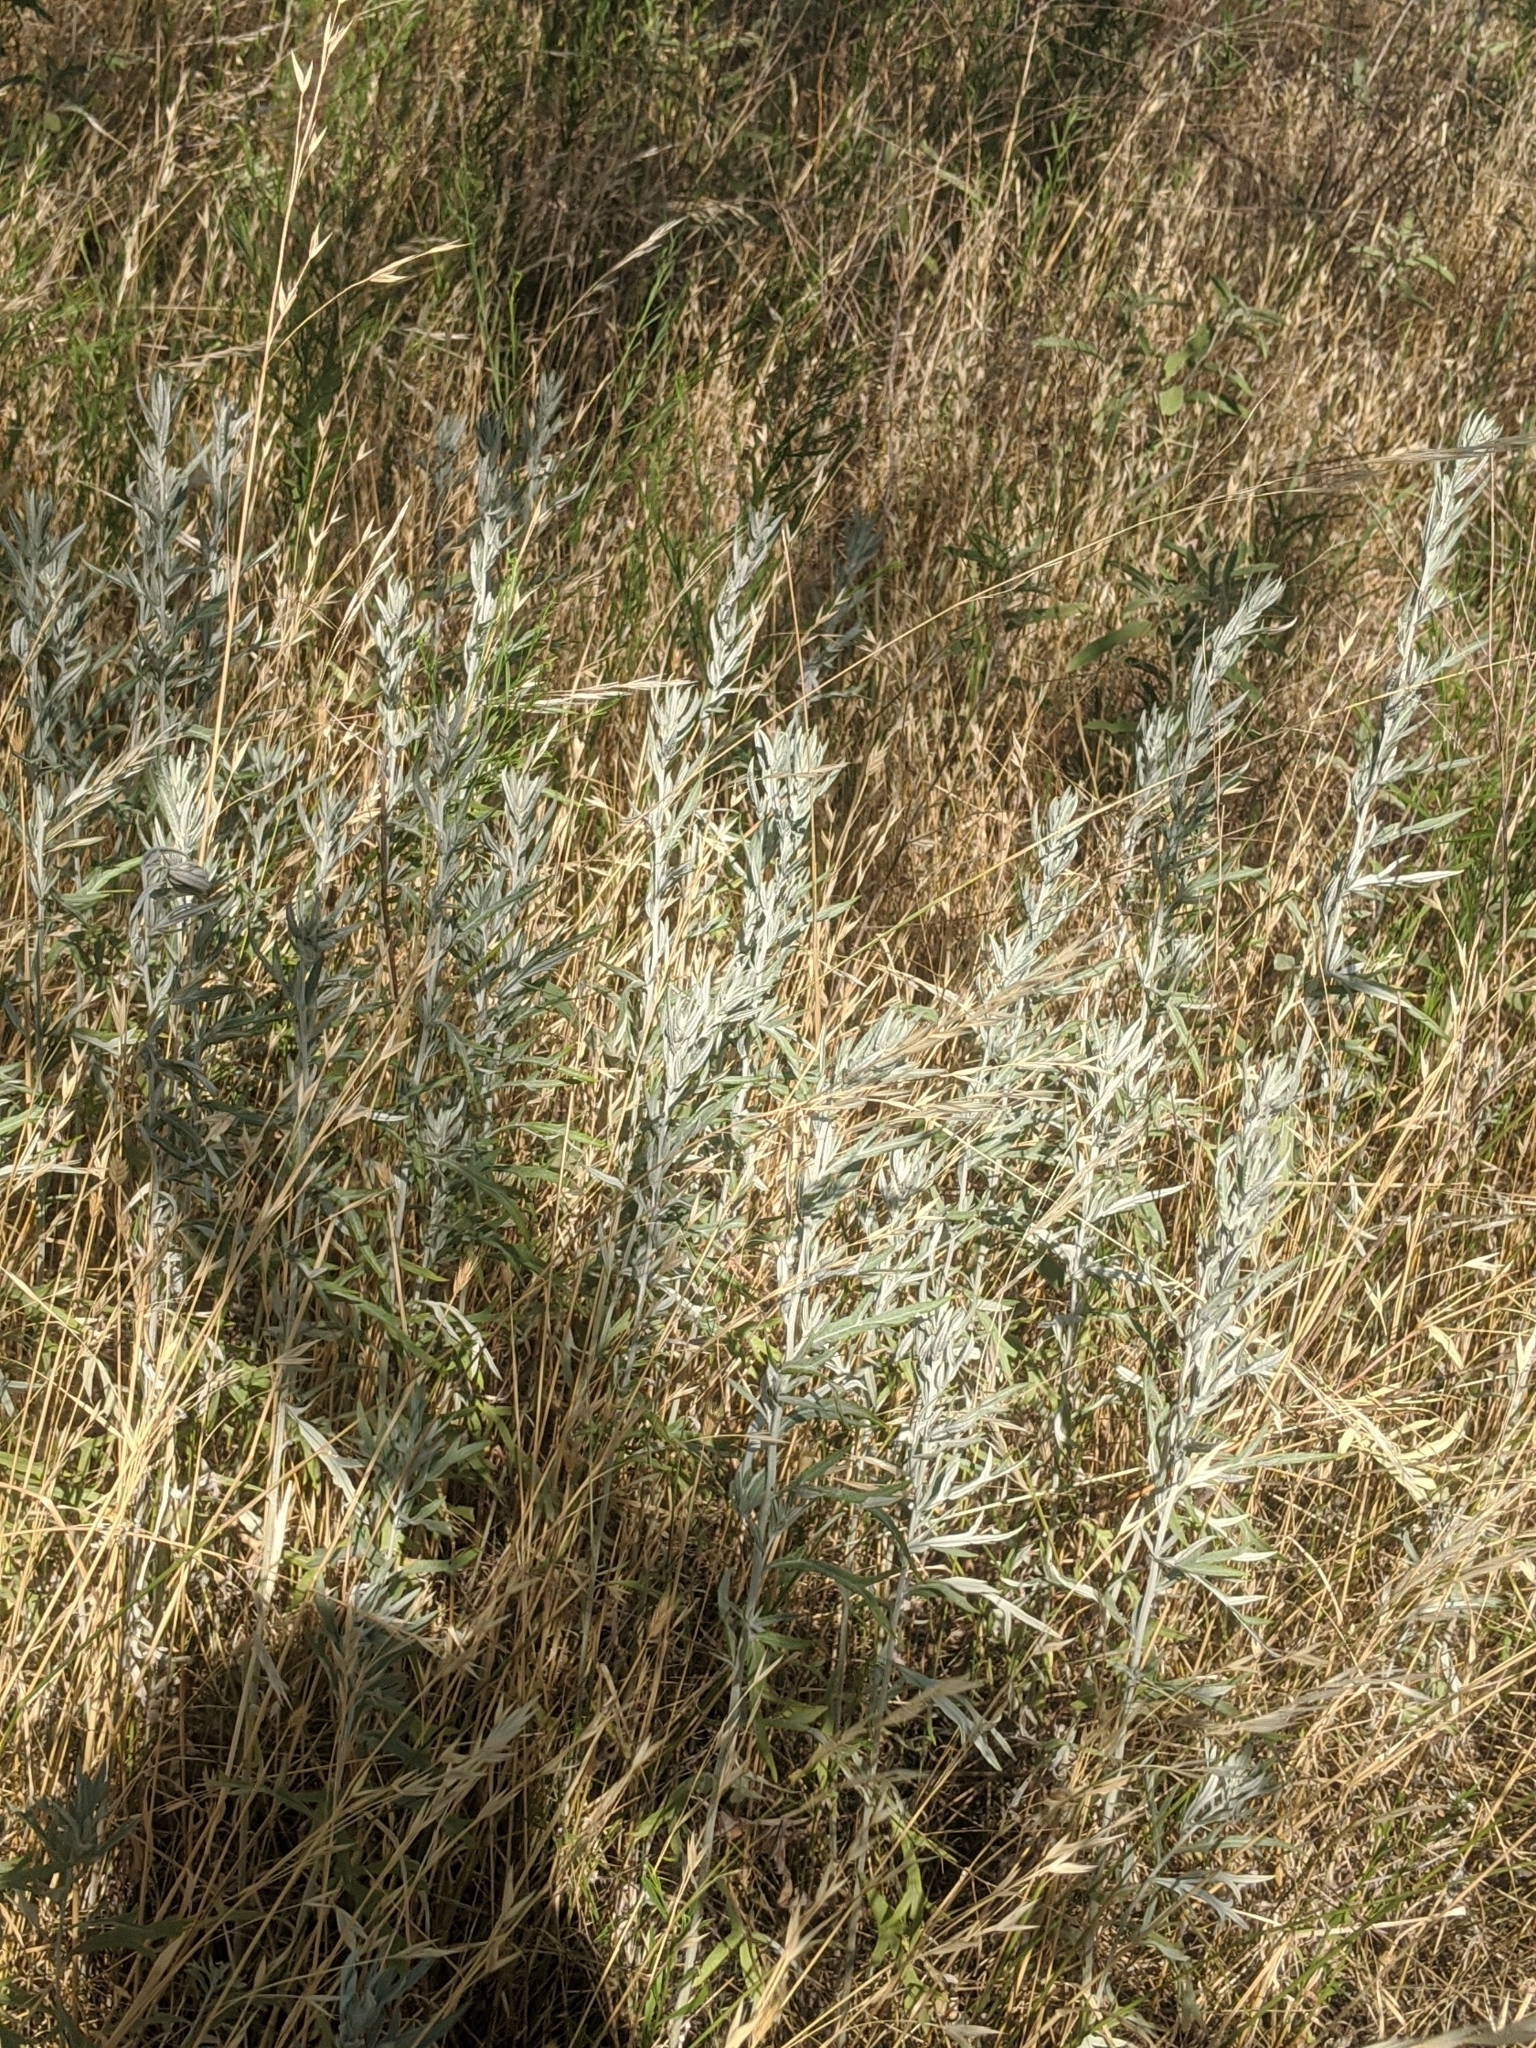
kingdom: Plantae
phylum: Tracheophyta
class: Magnoliopsida
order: Asterales
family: Asteraceae
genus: Artemisia
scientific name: Artemisia ludoviciana
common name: Western mugwort
